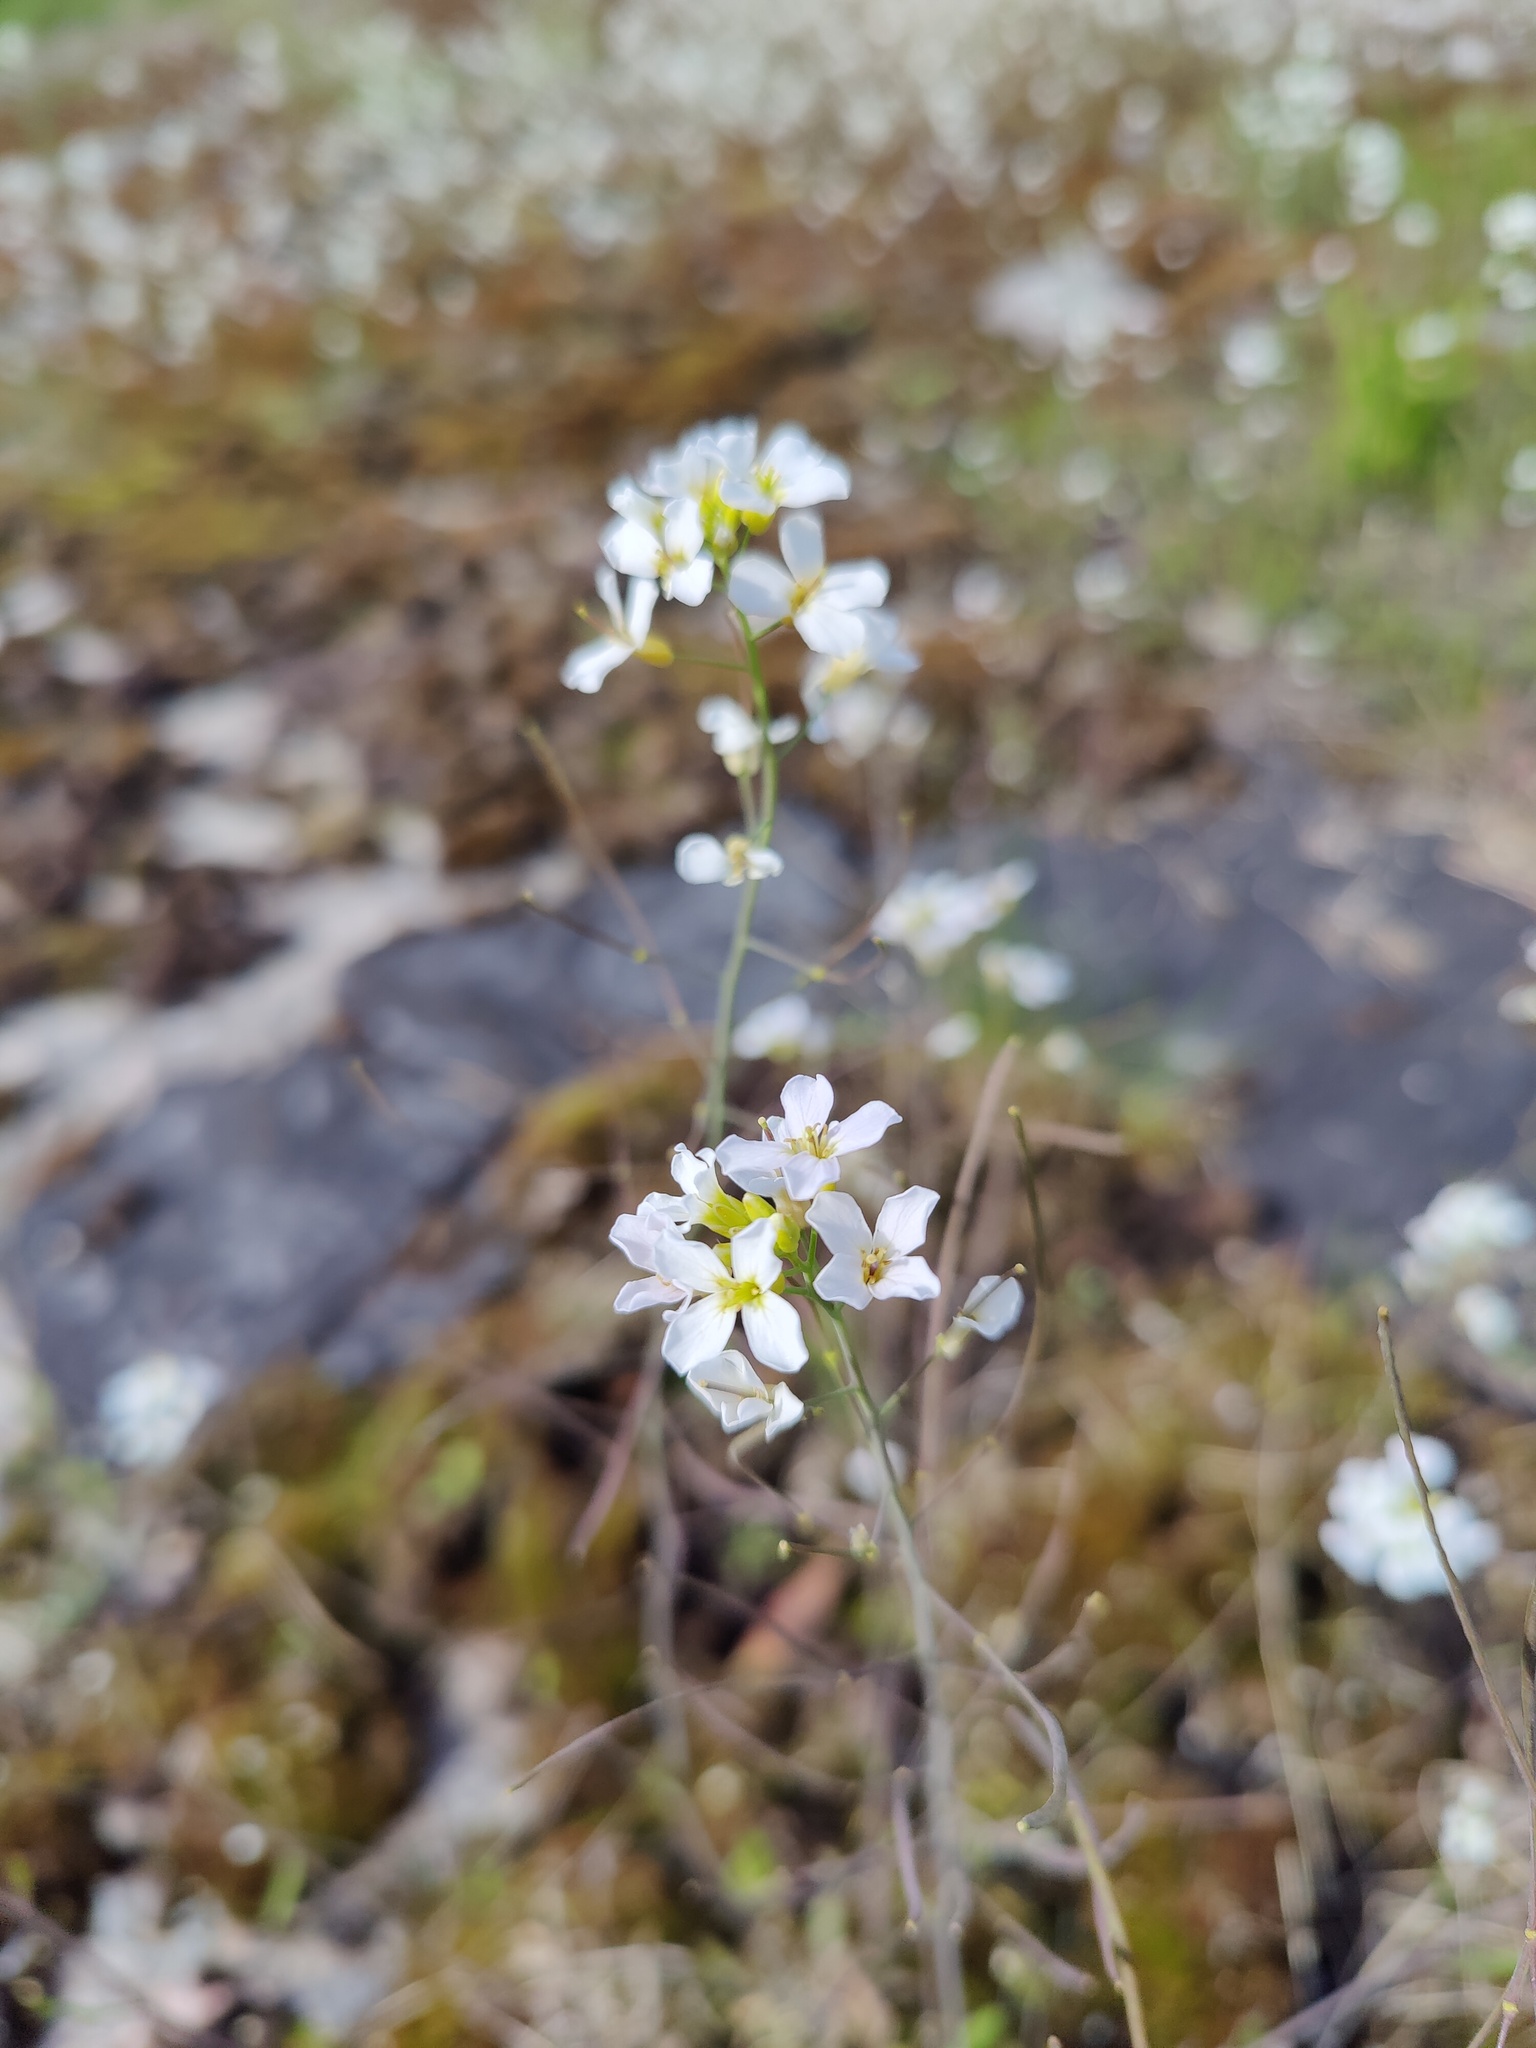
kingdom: Plantae
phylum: Tracheophyta
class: Magnoliopsida
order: Brassicales
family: Brassicaceae
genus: Arabidopsis
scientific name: Arabidopsis lyrata
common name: Lyrate rockcress
